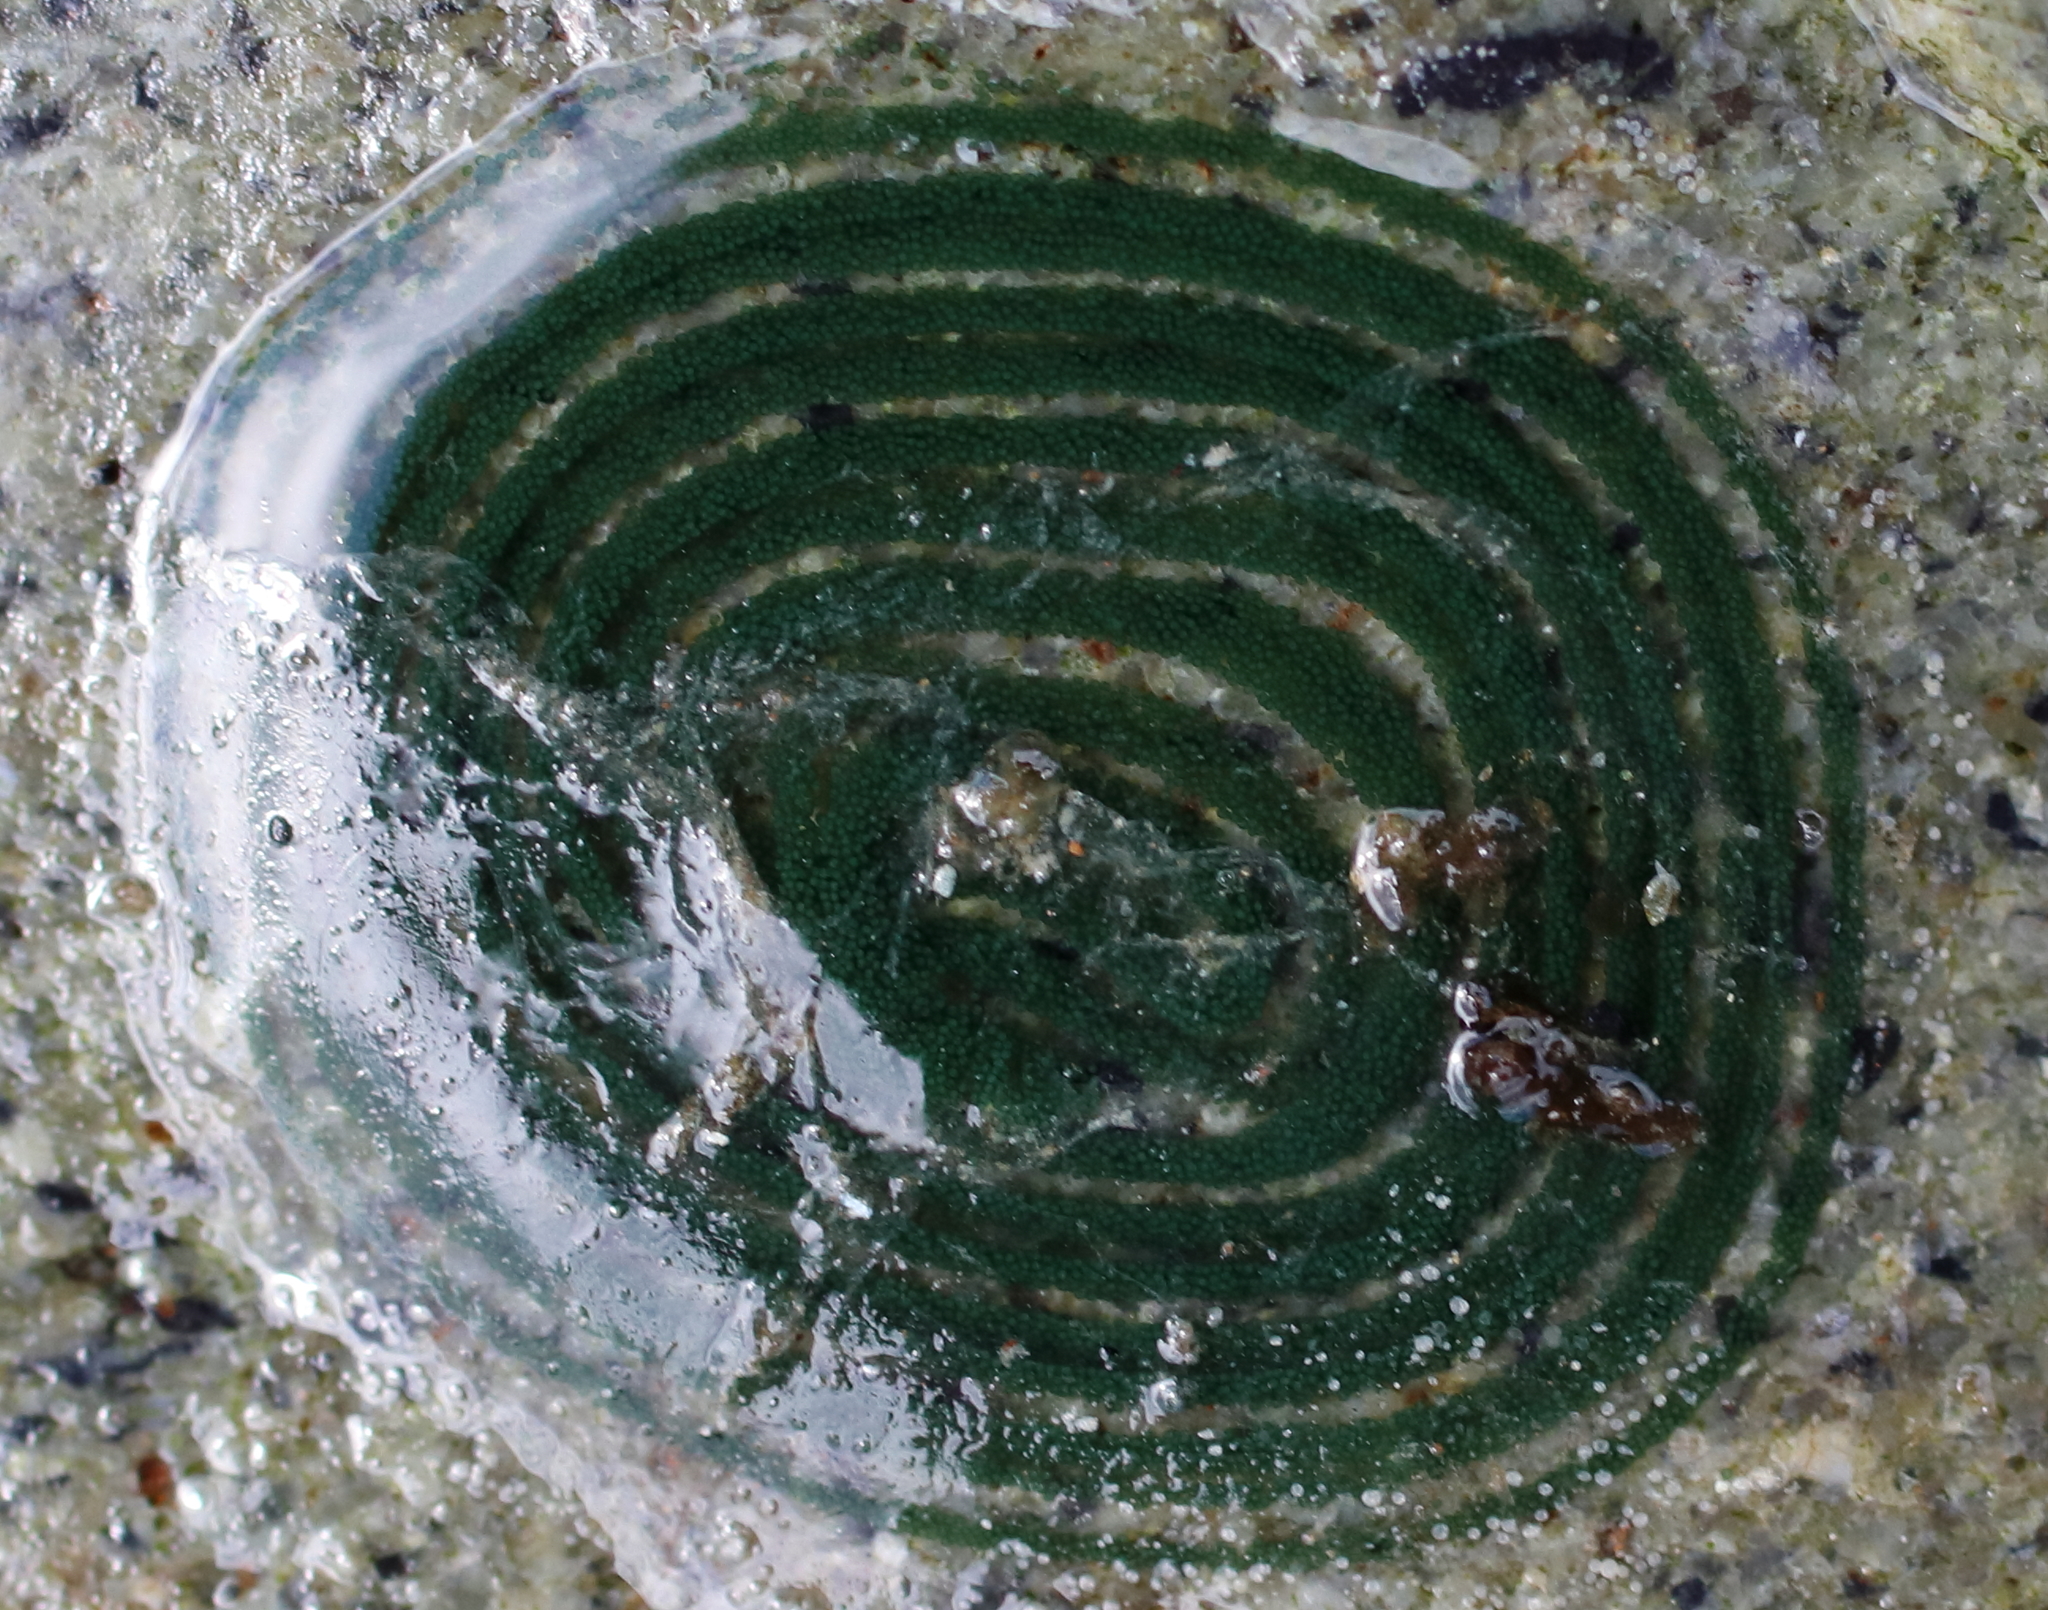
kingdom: Animalia
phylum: Annelida
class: Polychaeta
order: Phyllodocida
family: Phyllodocidae
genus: Phyllodoce
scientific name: Phyllodoce williamsi
